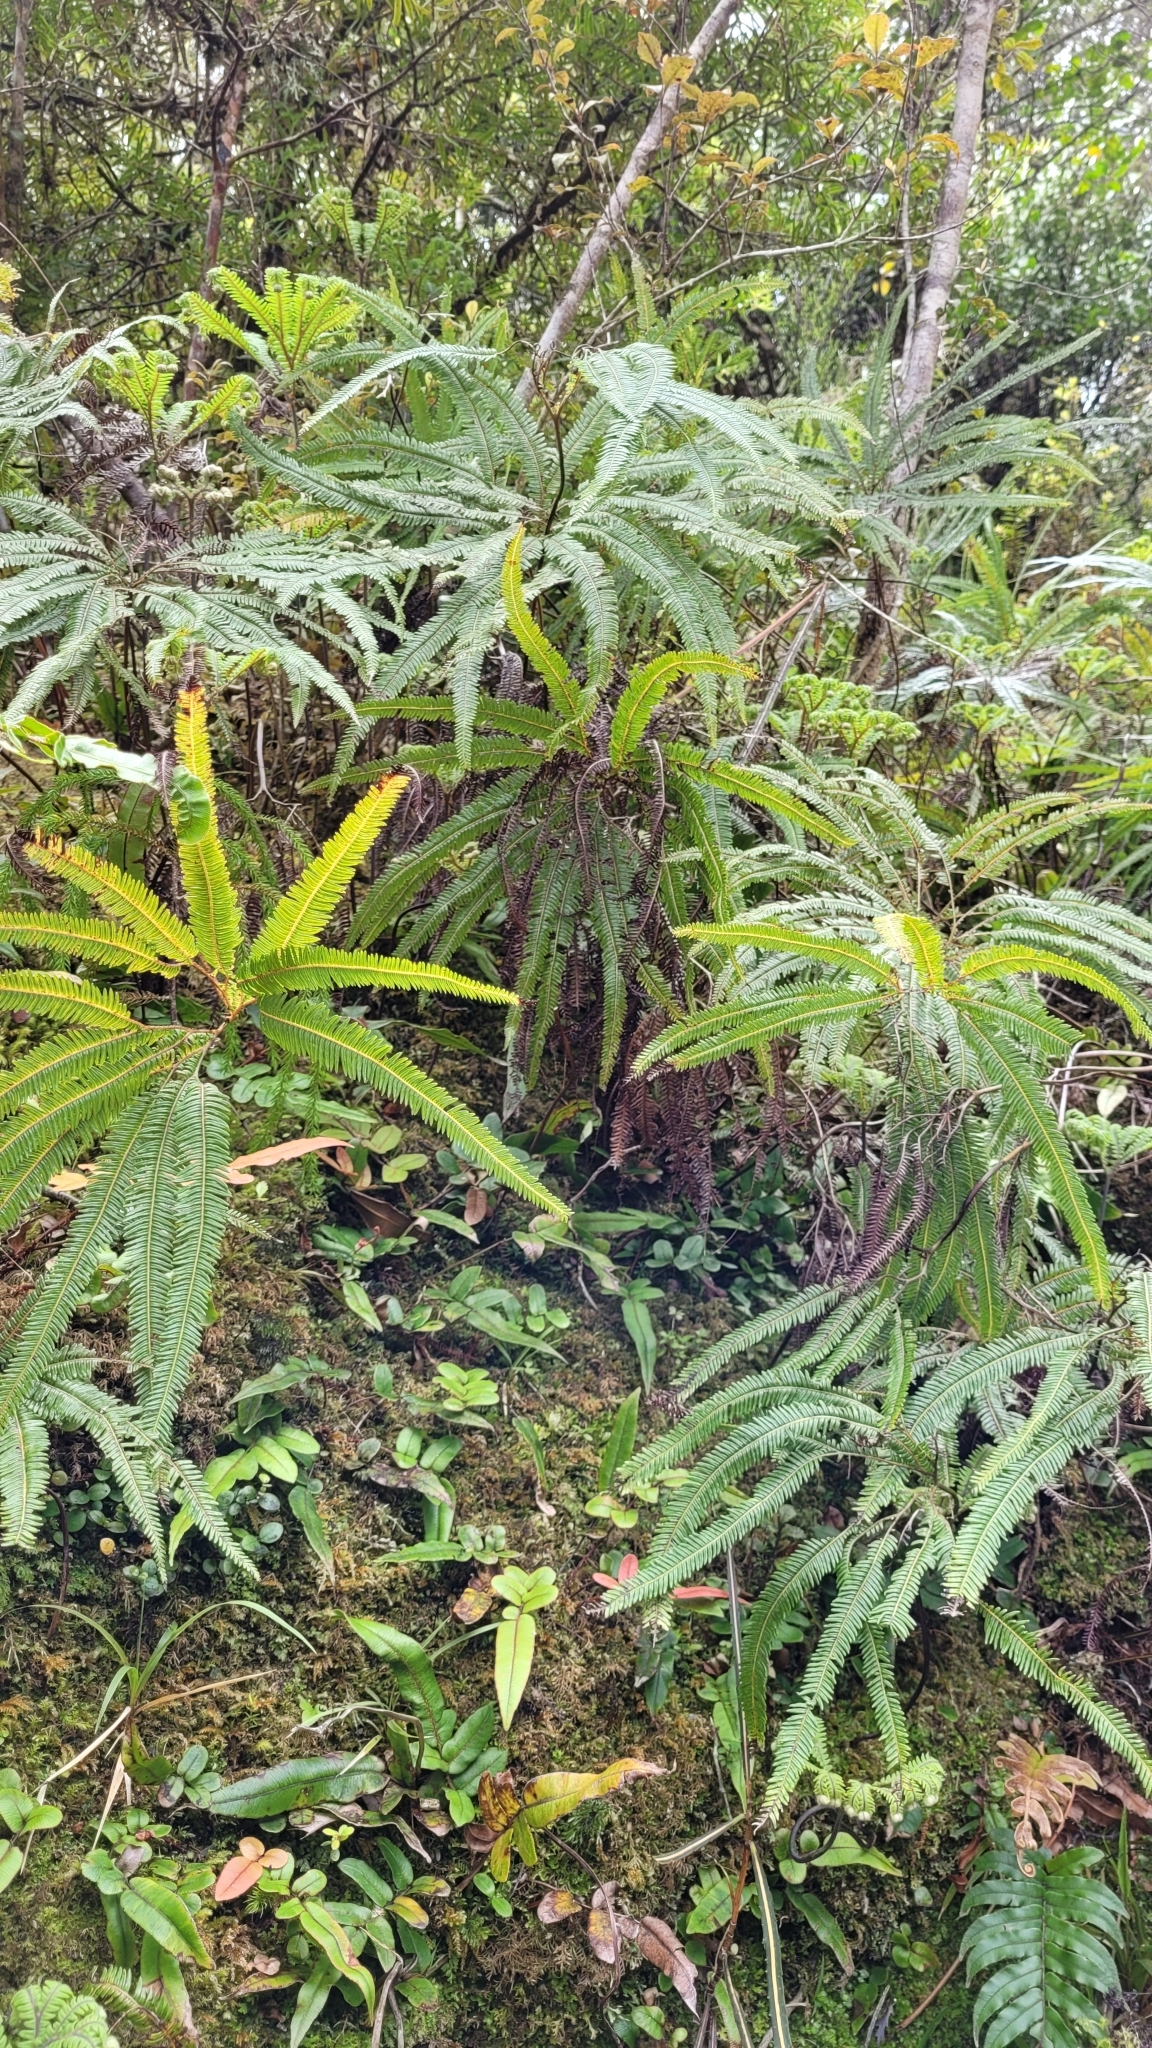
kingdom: Plantae
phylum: Tracheophyta
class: Polypodiopsida
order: Gleicheniales
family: Gleicheniaceae
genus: Sticherus
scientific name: Sticherus cunninghamii
